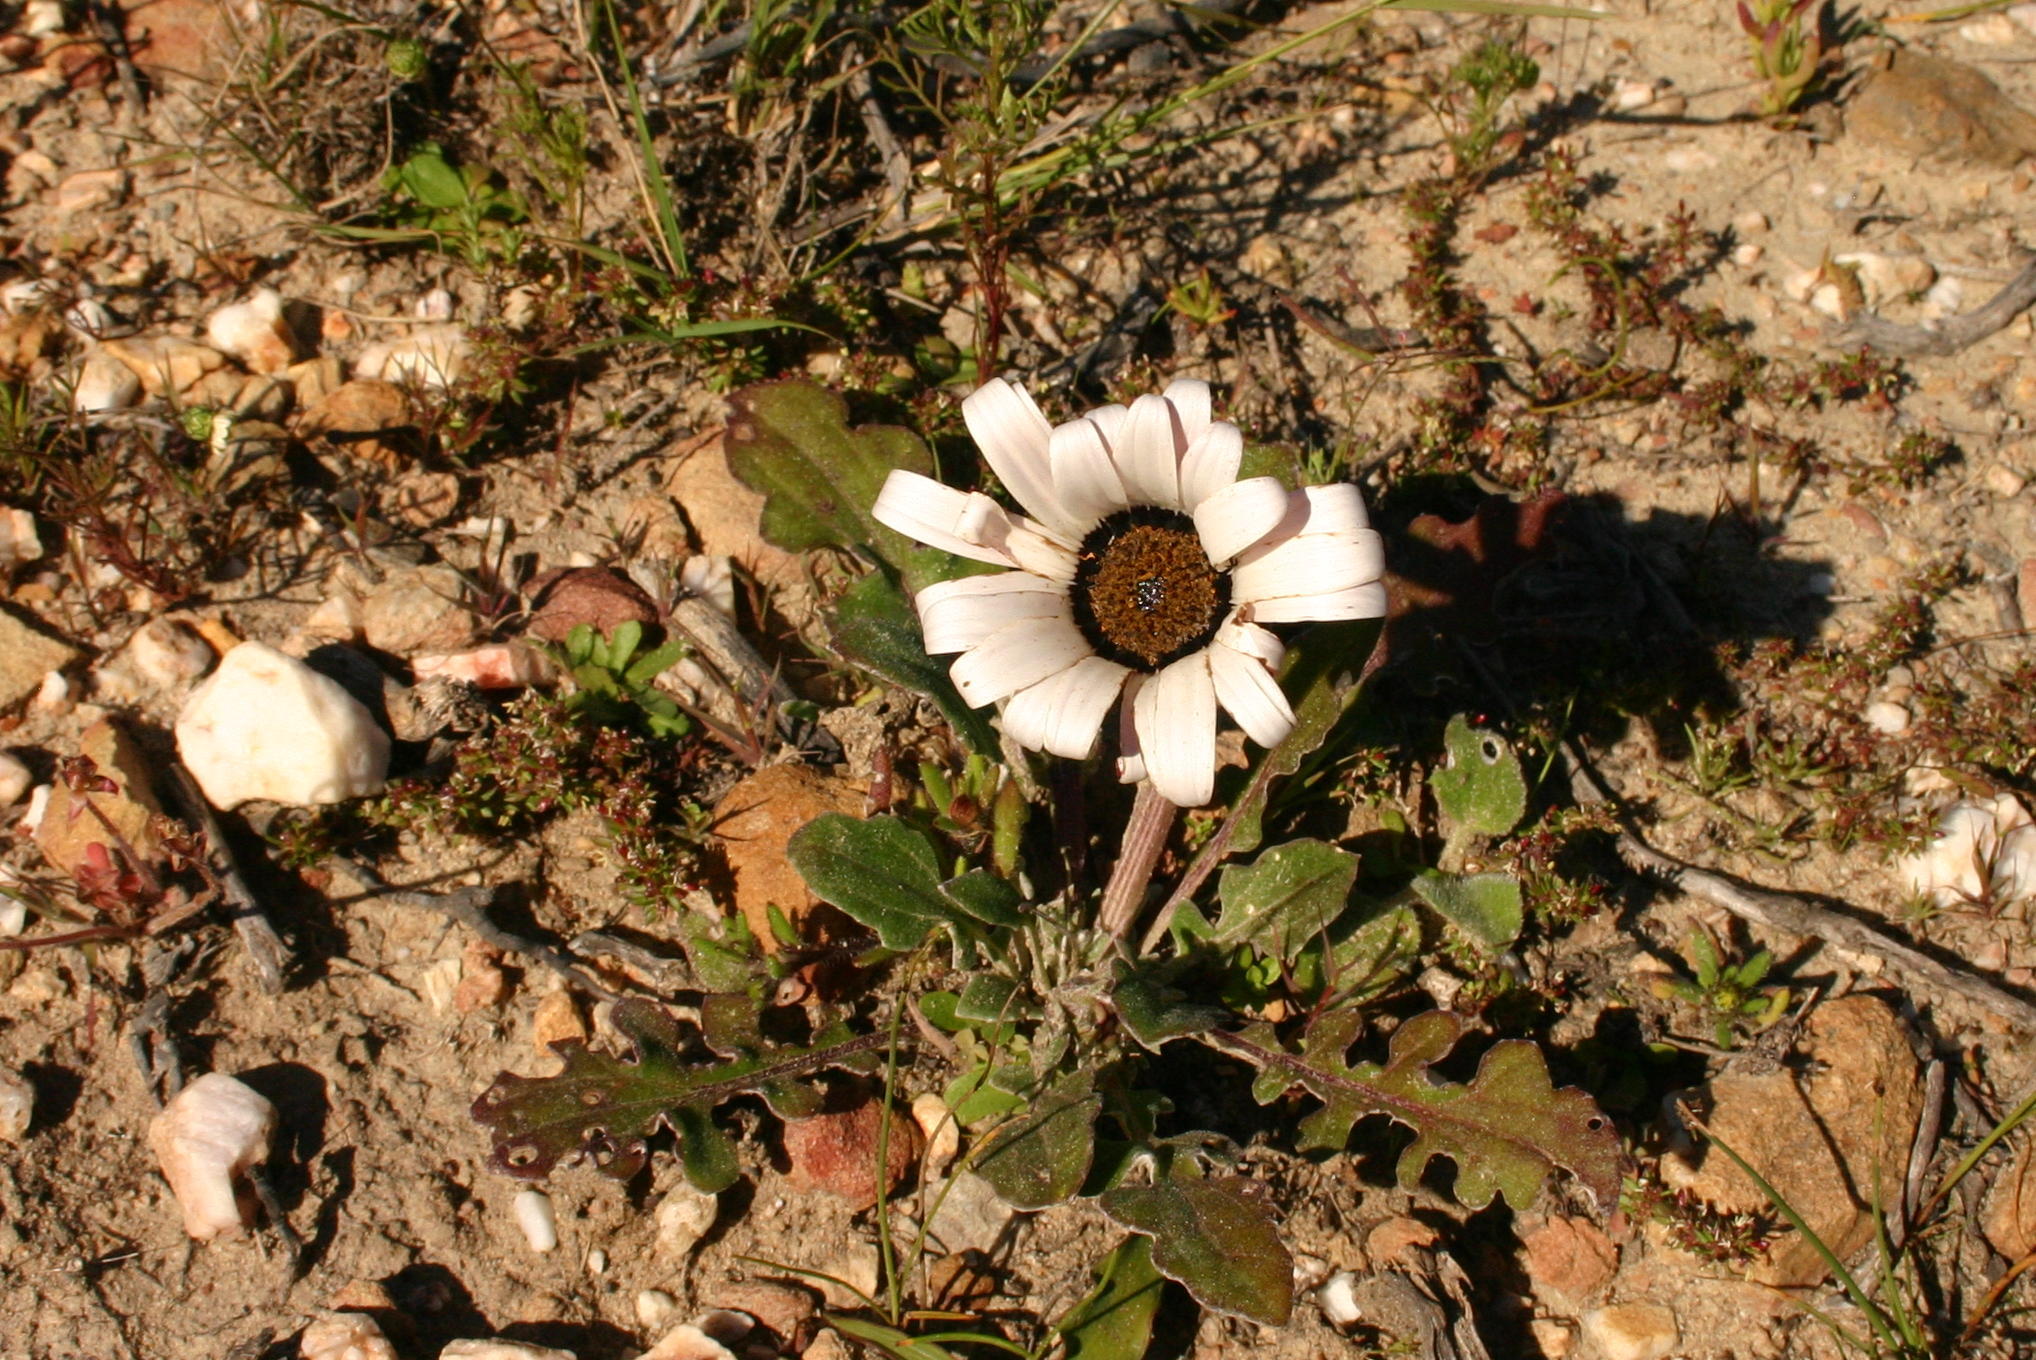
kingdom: Plantae
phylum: Tracheophyta
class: Magnoliopsida
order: Asterales
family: Asteraceae
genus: Arctotis
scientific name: Arctotis acaulis
